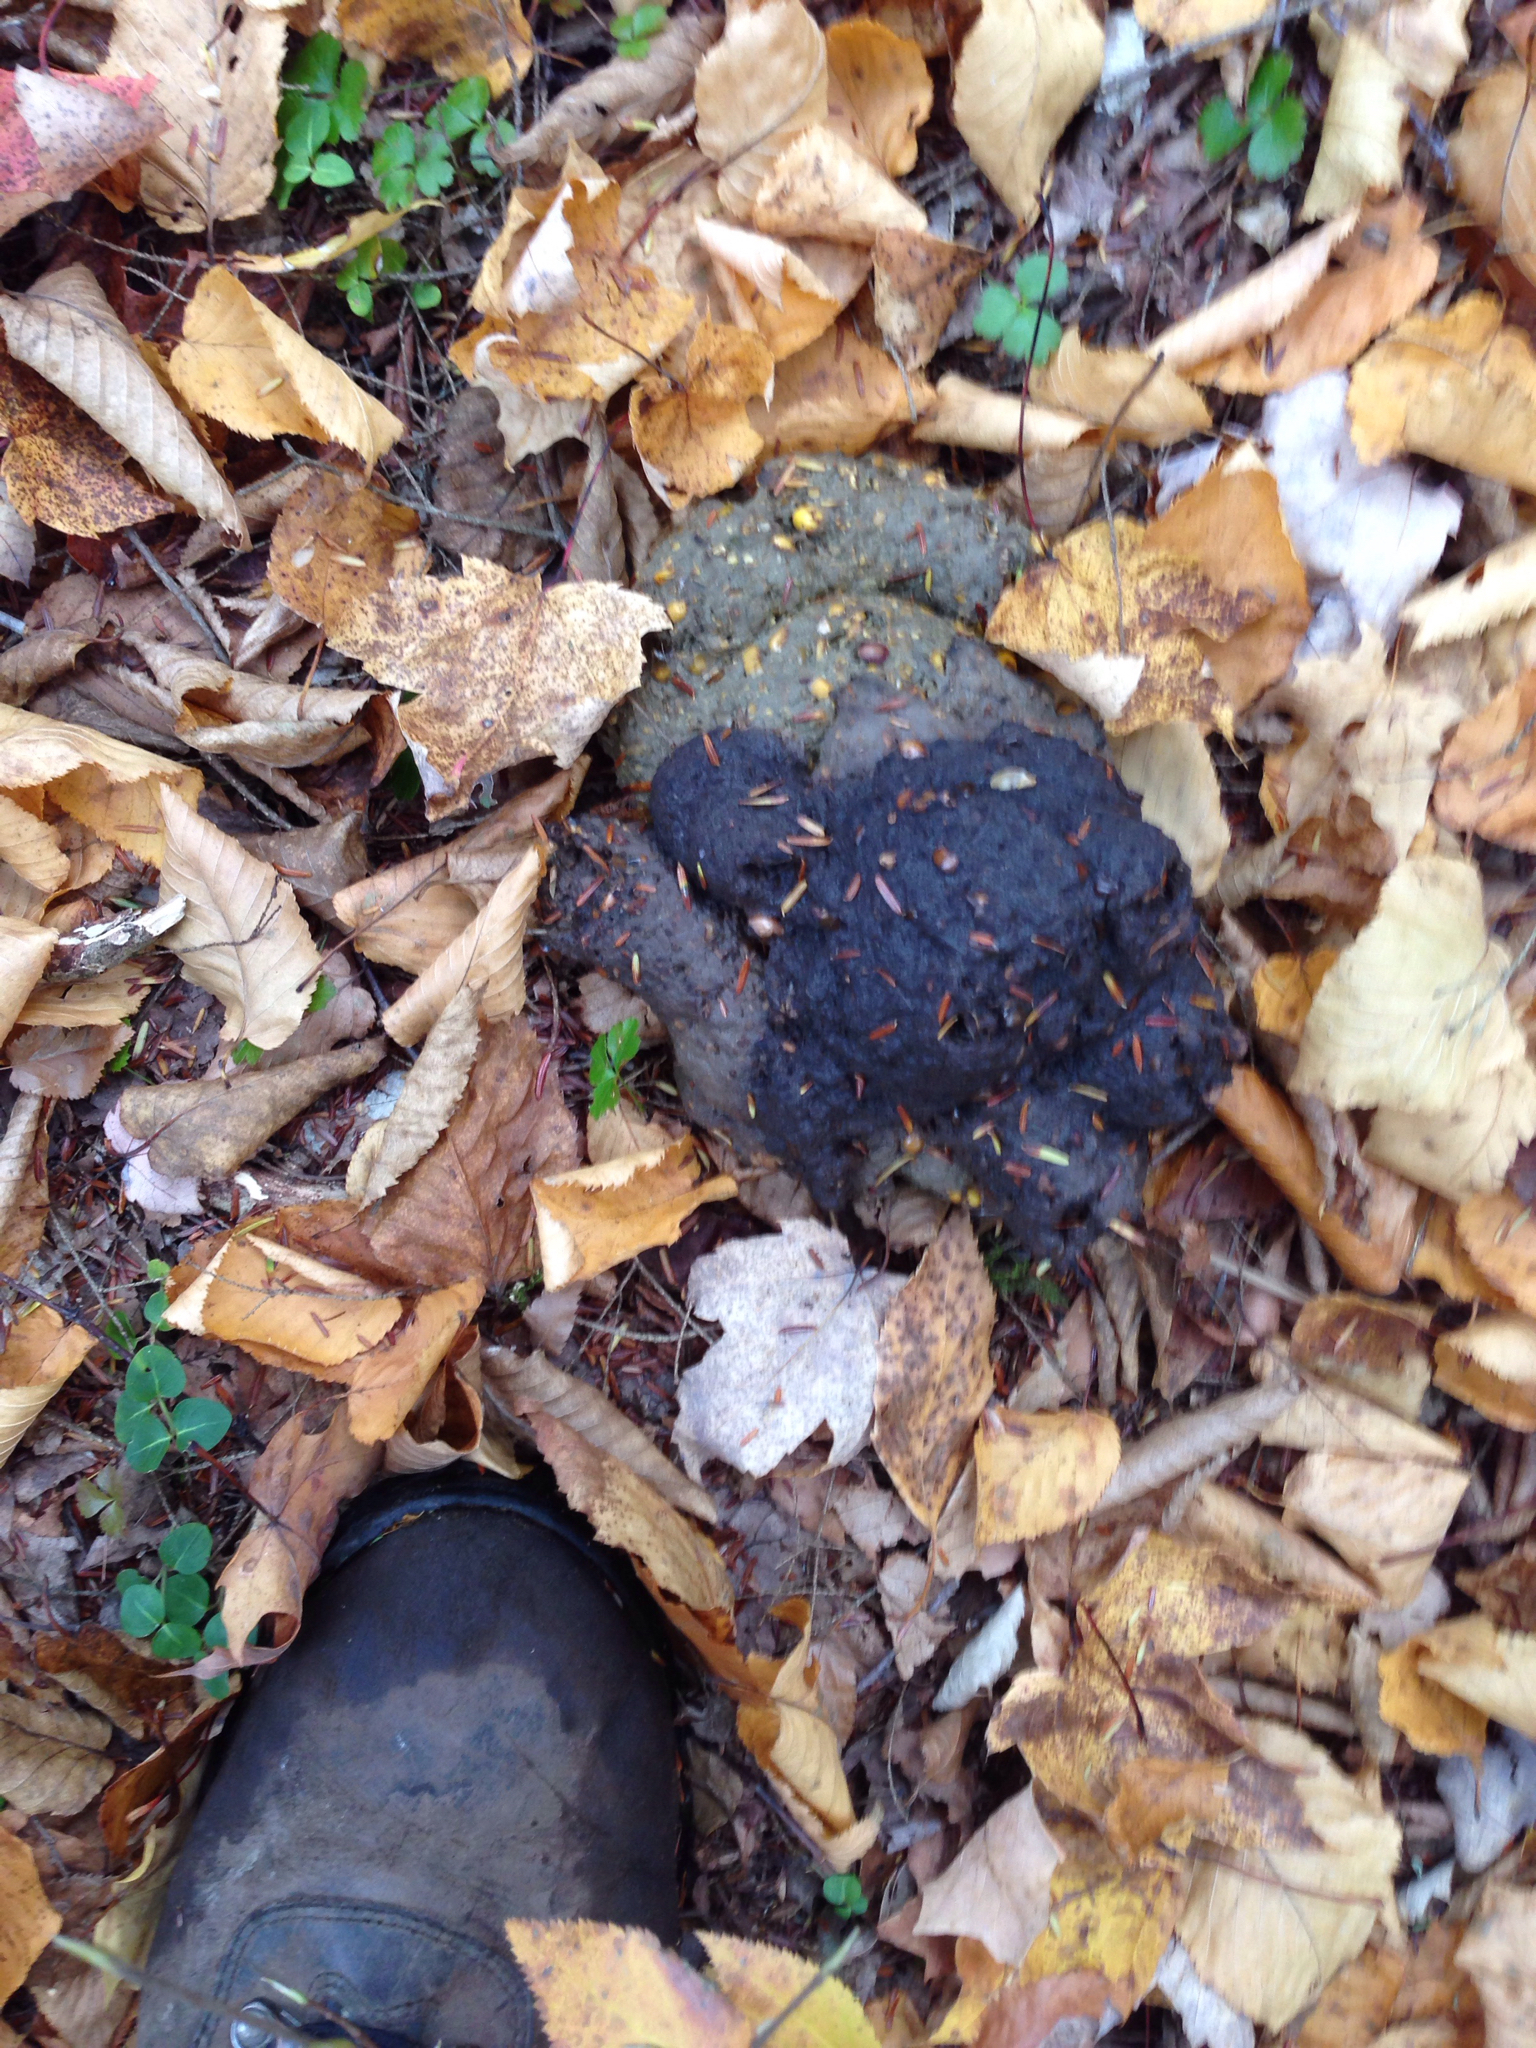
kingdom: Animalia
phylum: Chordata
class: Mammalia
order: Carnivora
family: Ursidae
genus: Ursus
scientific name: Ursus americanus
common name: American black bear
